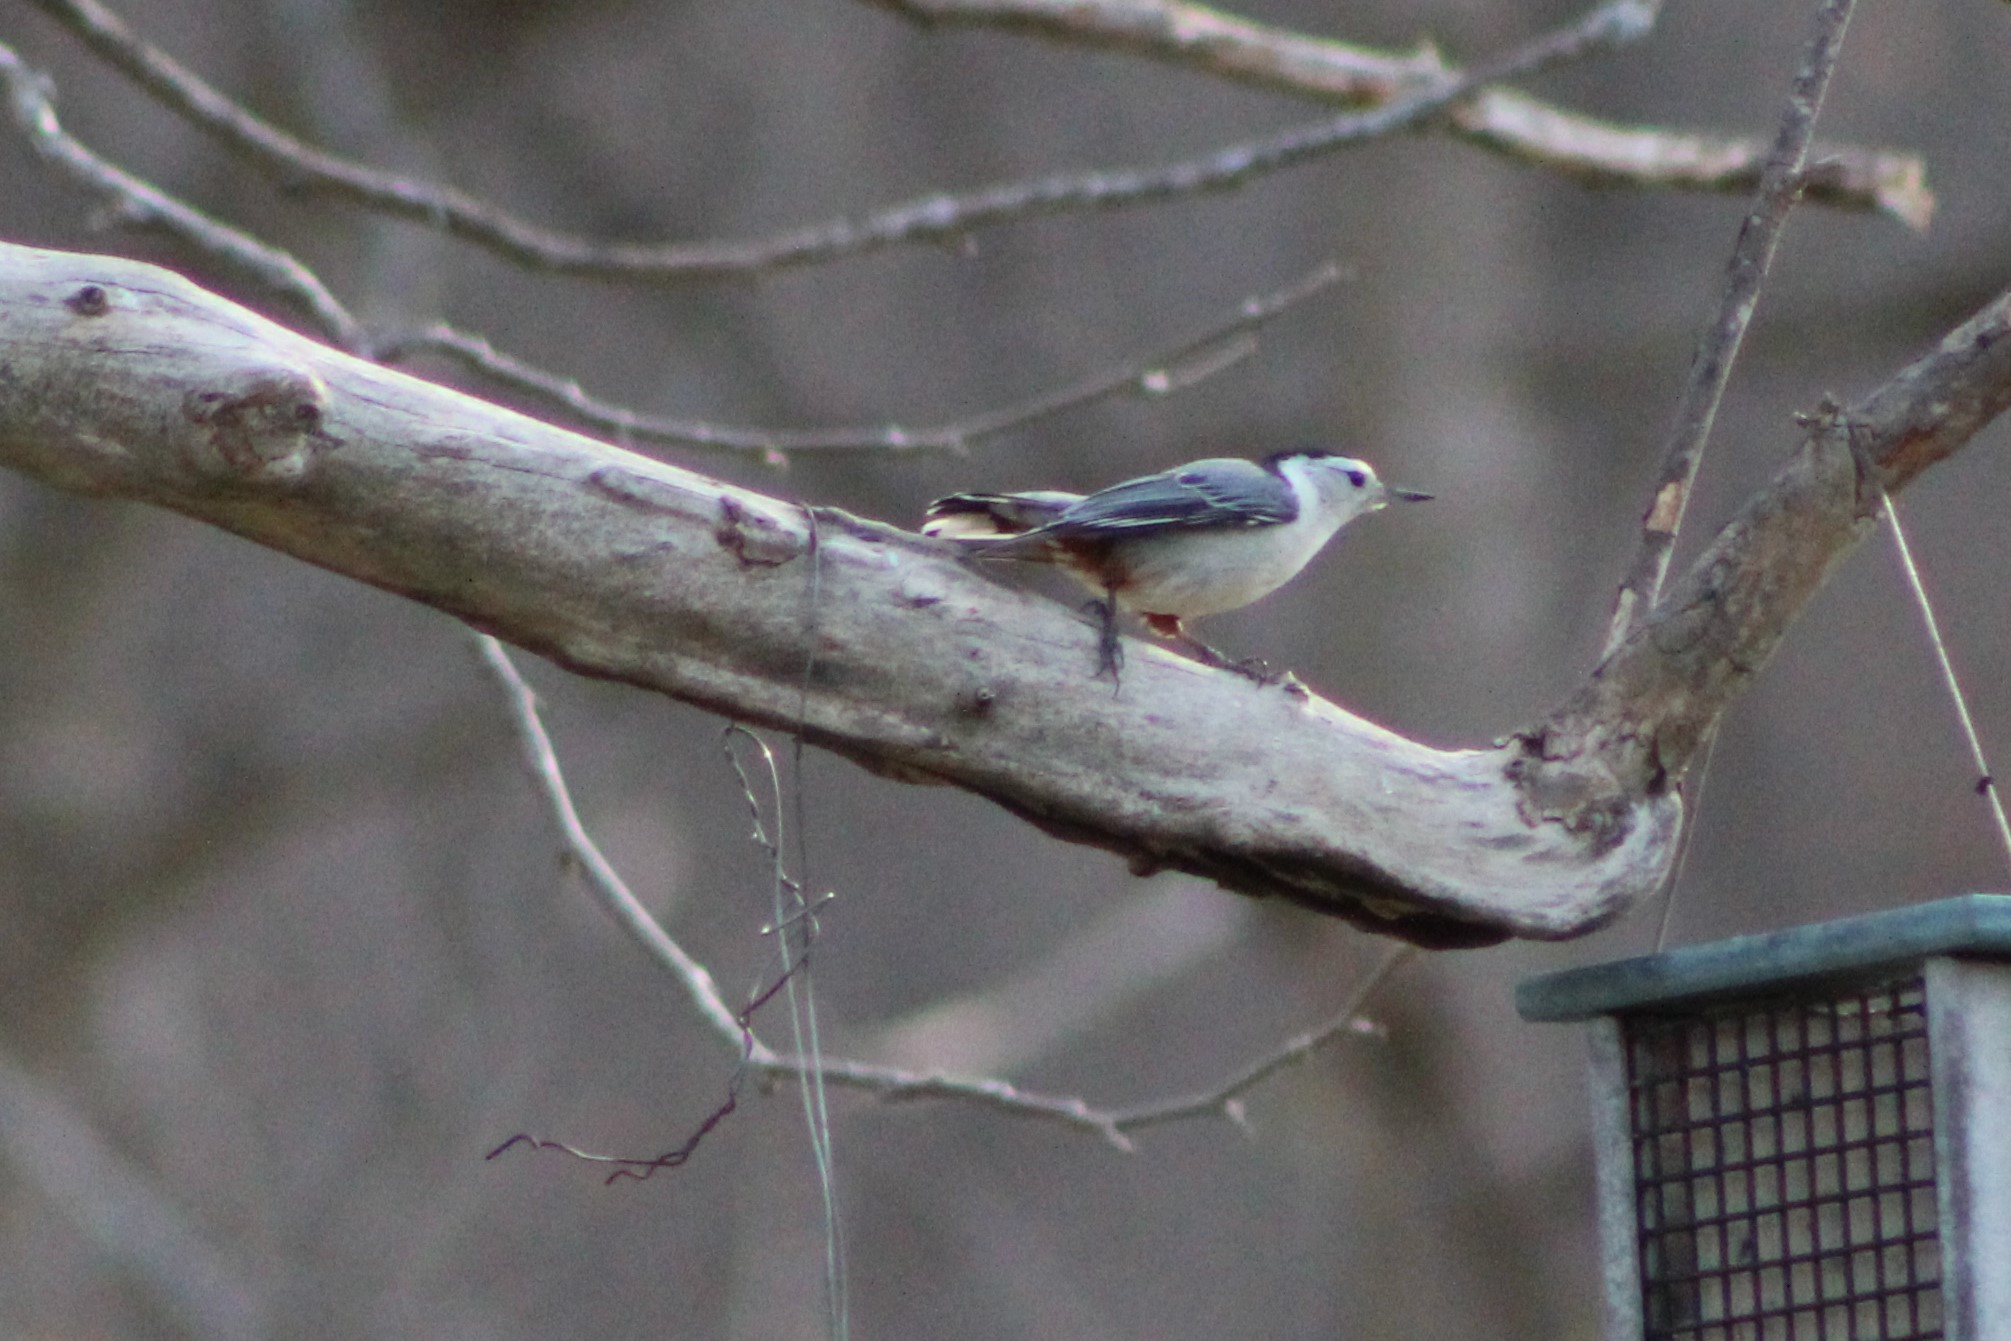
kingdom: Animalia
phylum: Chordata
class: Aves
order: Passeriformes
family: Sittidae
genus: Sitta
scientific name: Sitta carolinensis
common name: White-breasted nuthatch
